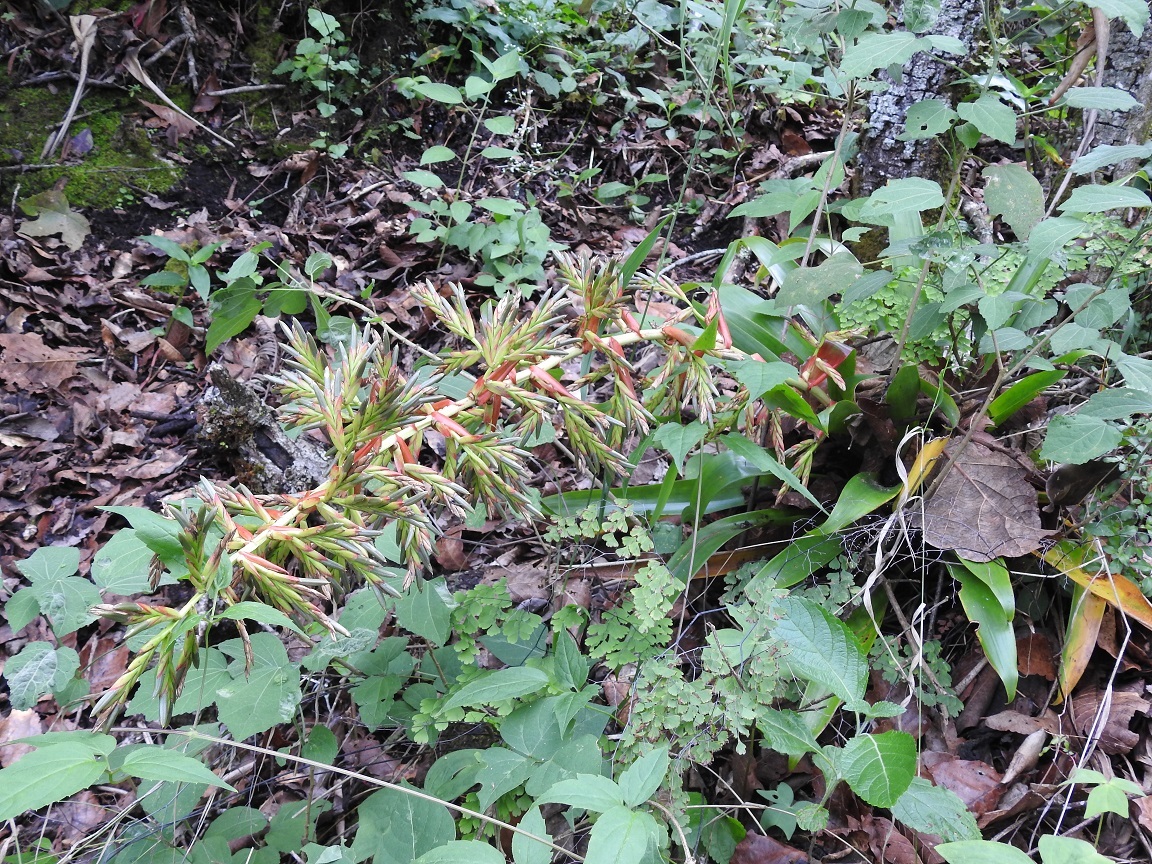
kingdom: Plantae
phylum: Tracheophyta
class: Liliopsida
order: Poales
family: Bromeliaceae
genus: Tillandsia
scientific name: Tillandsia guatemalensis
